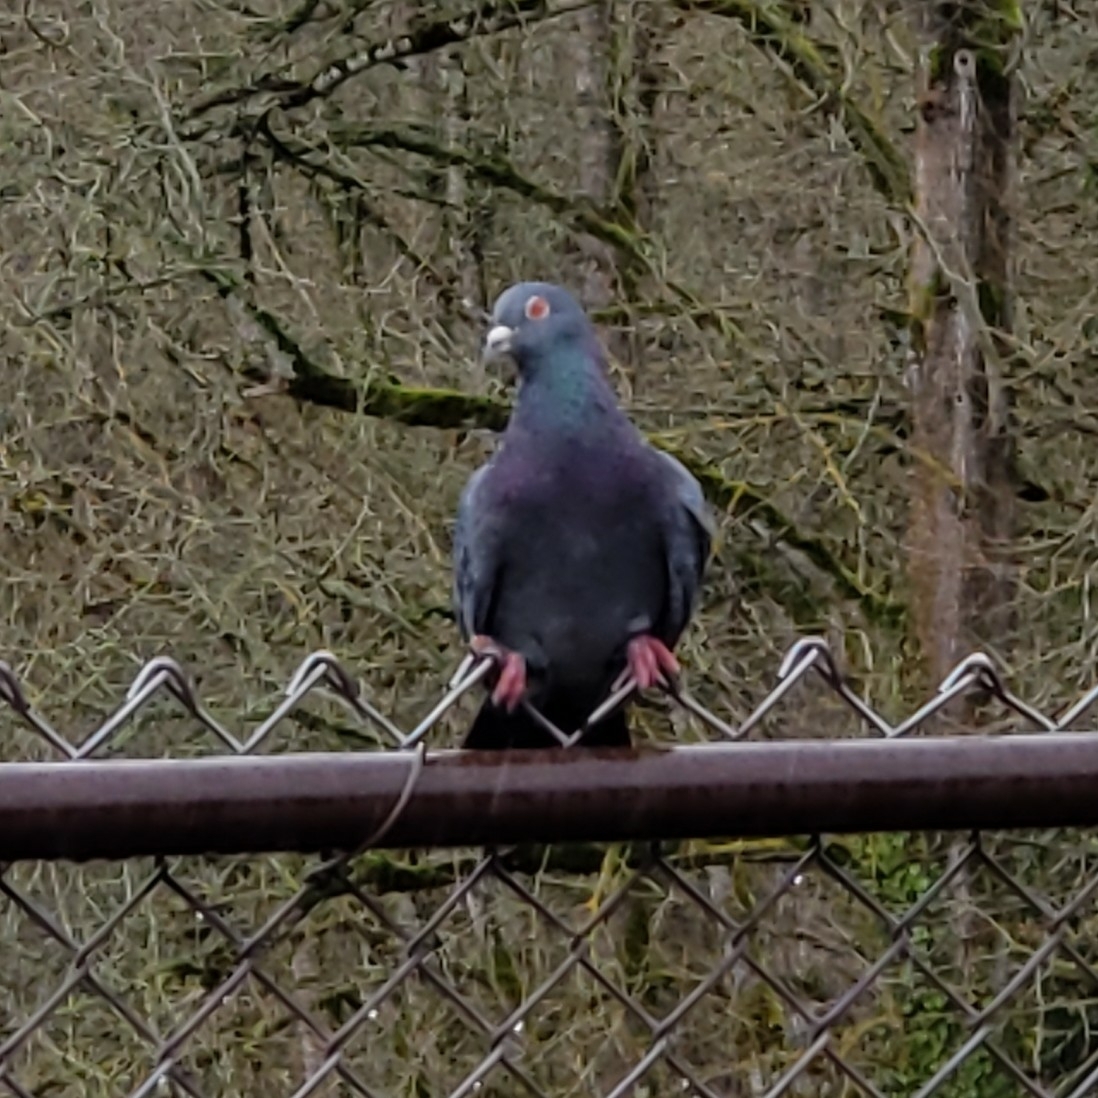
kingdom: Animalia
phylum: Chordata
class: Aves
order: Columbiformes
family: Columbidae
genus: Columba
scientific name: Columba livia
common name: Rock pigeon
